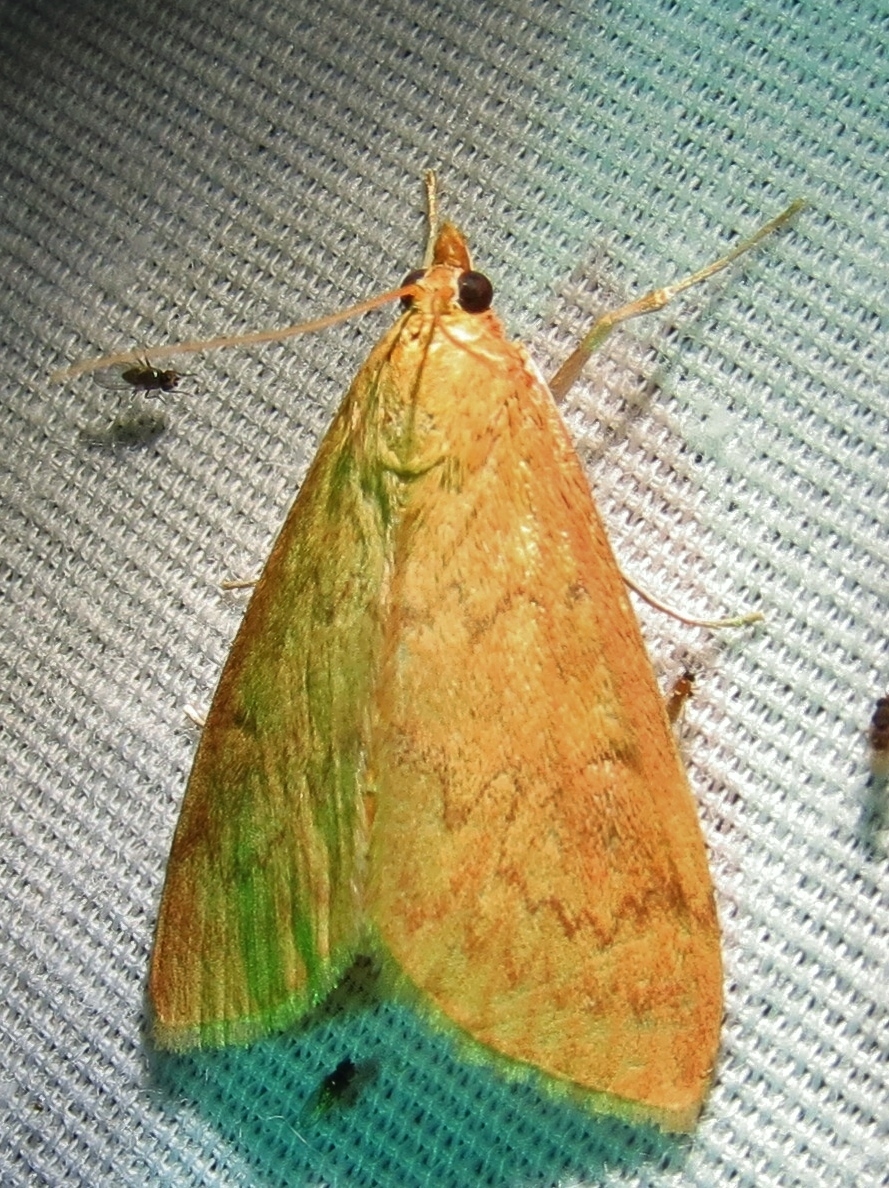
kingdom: Animalia
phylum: Arthropoda
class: Insecta
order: Lepidoptera
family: Crambidae
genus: Ostrinia
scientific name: Ostrinia penitalis
